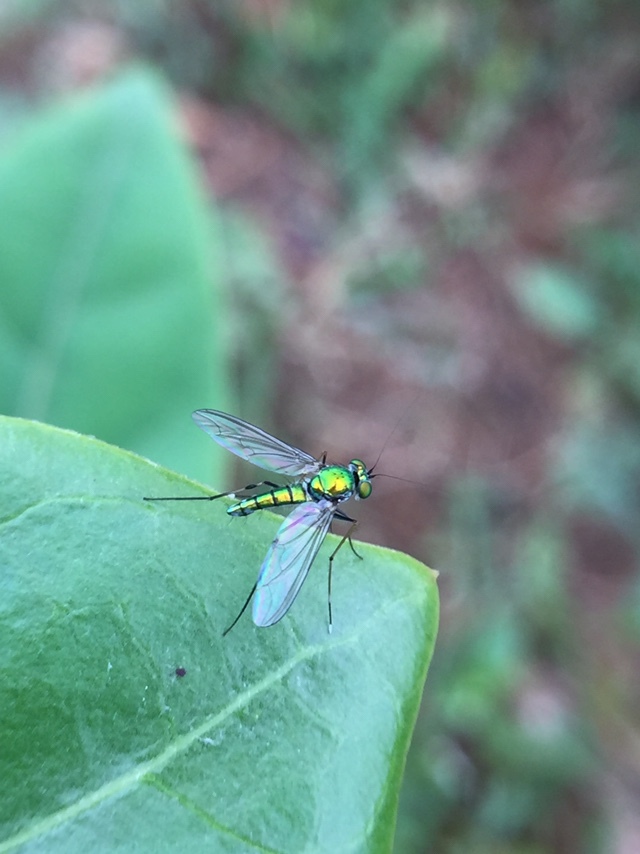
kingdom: Animalia
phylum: Arthropoda
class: Insecta
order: Diptera
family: Dolichopodidae
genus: Chrysosoma
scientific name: Chrysosoma leucopogon
